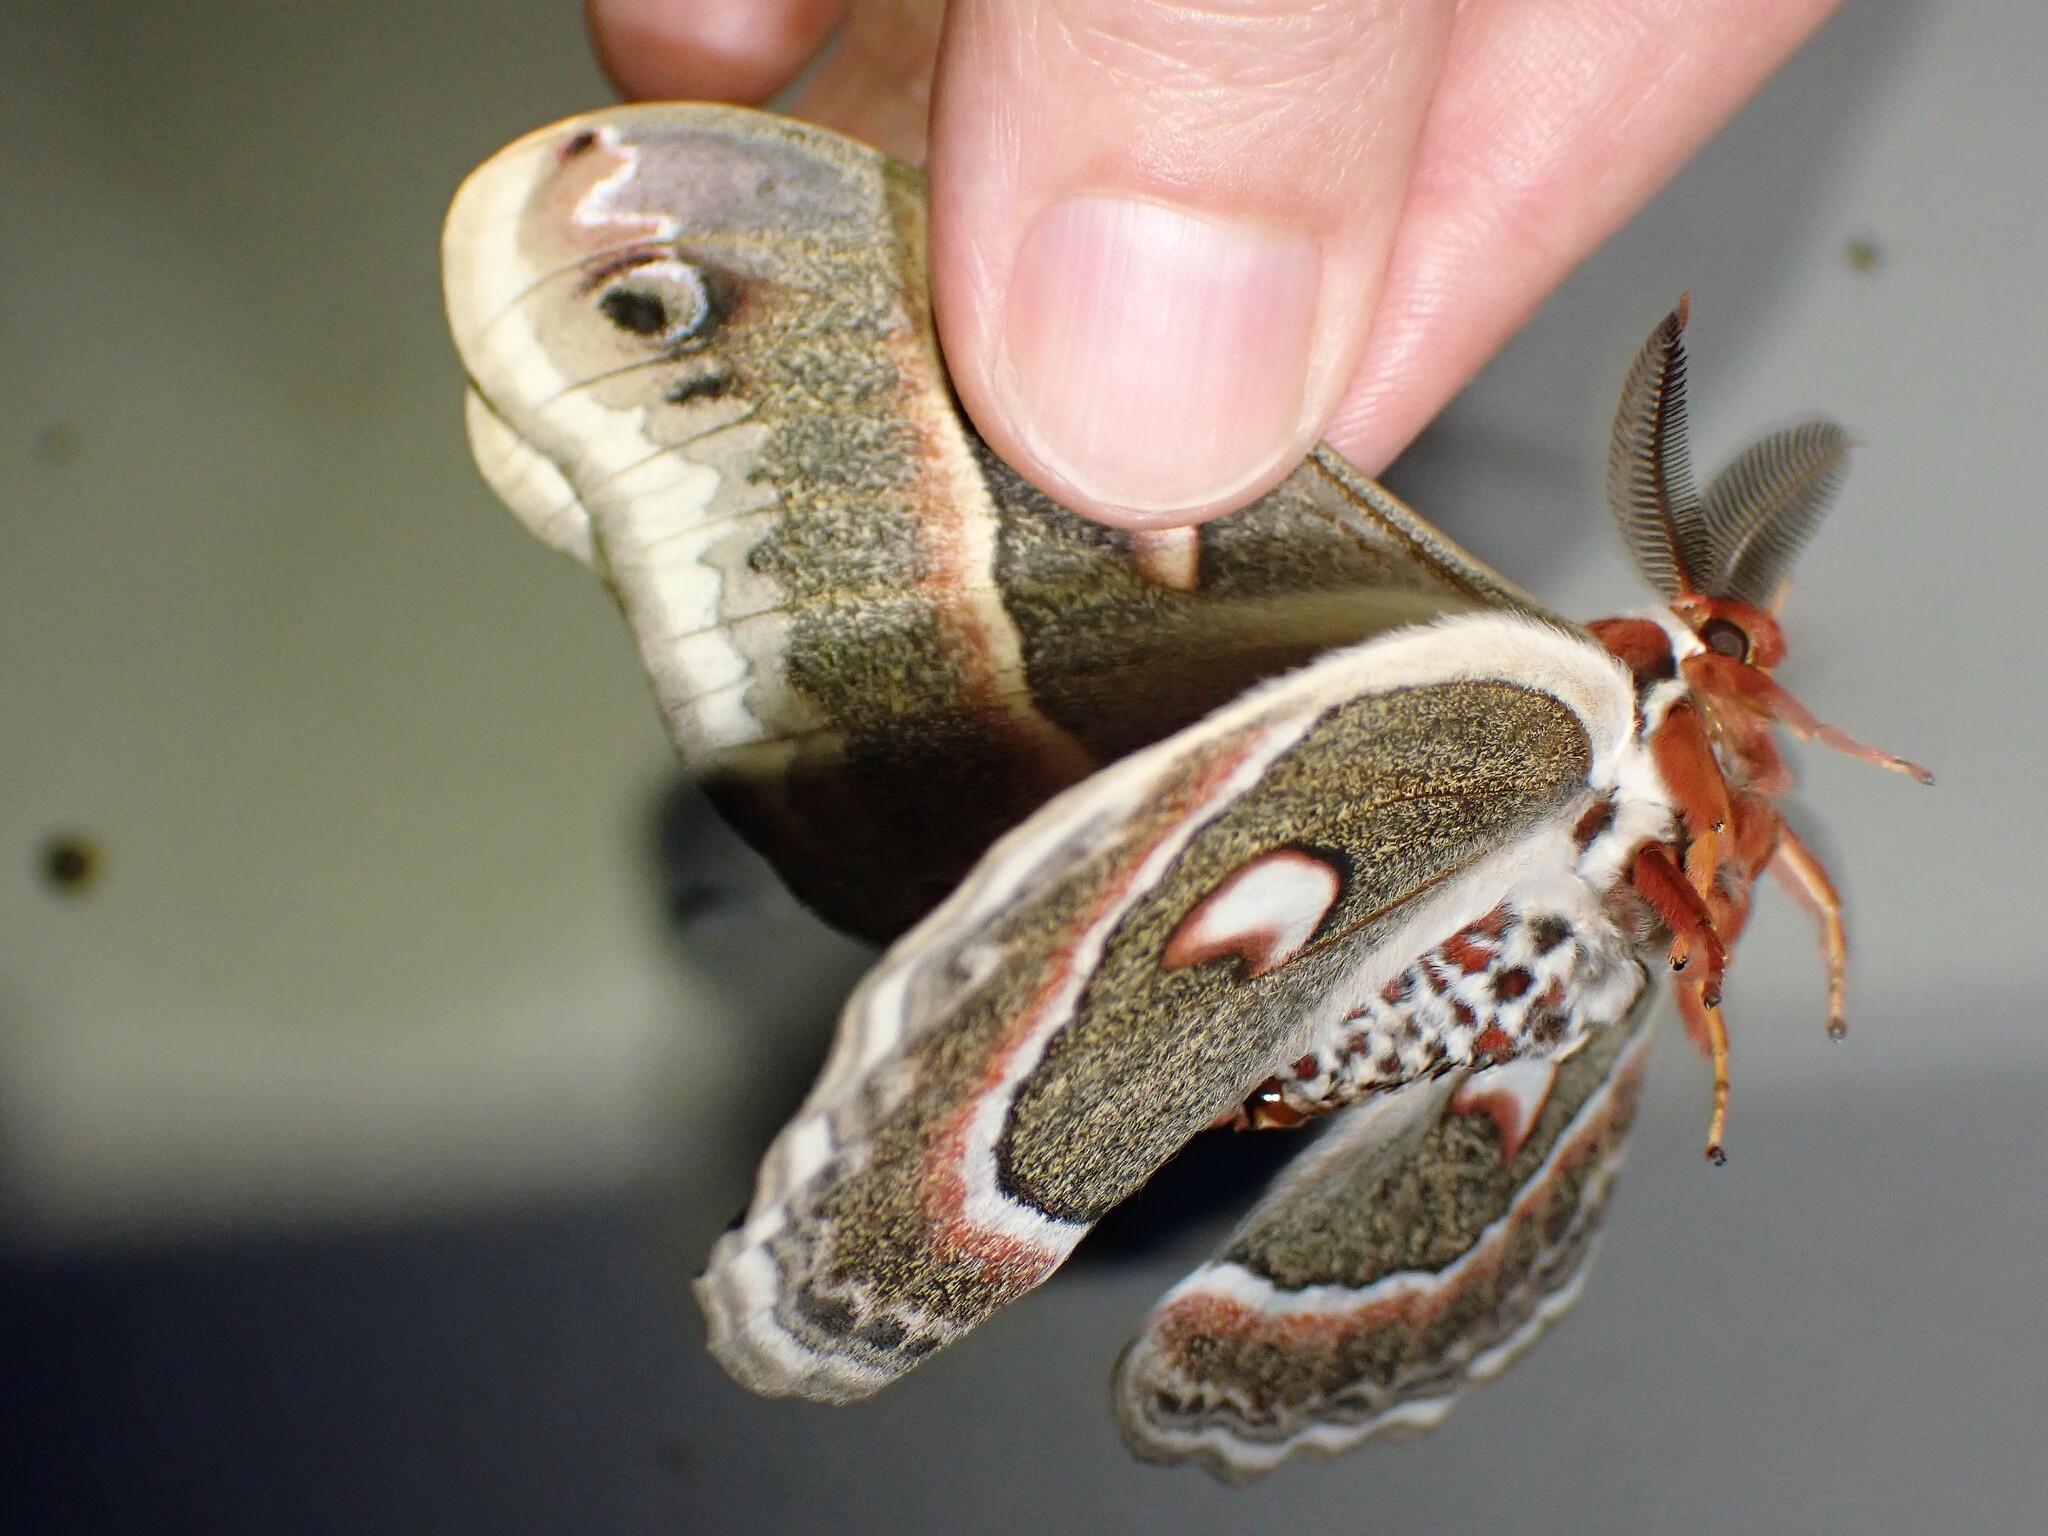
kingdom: Animalia
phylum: Arthropoda
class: Insecta
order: Lepidoptera
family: Saturniidae
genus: Hyalophora
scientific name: Hyalophora cecropia
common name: Cecropia silkmoth
